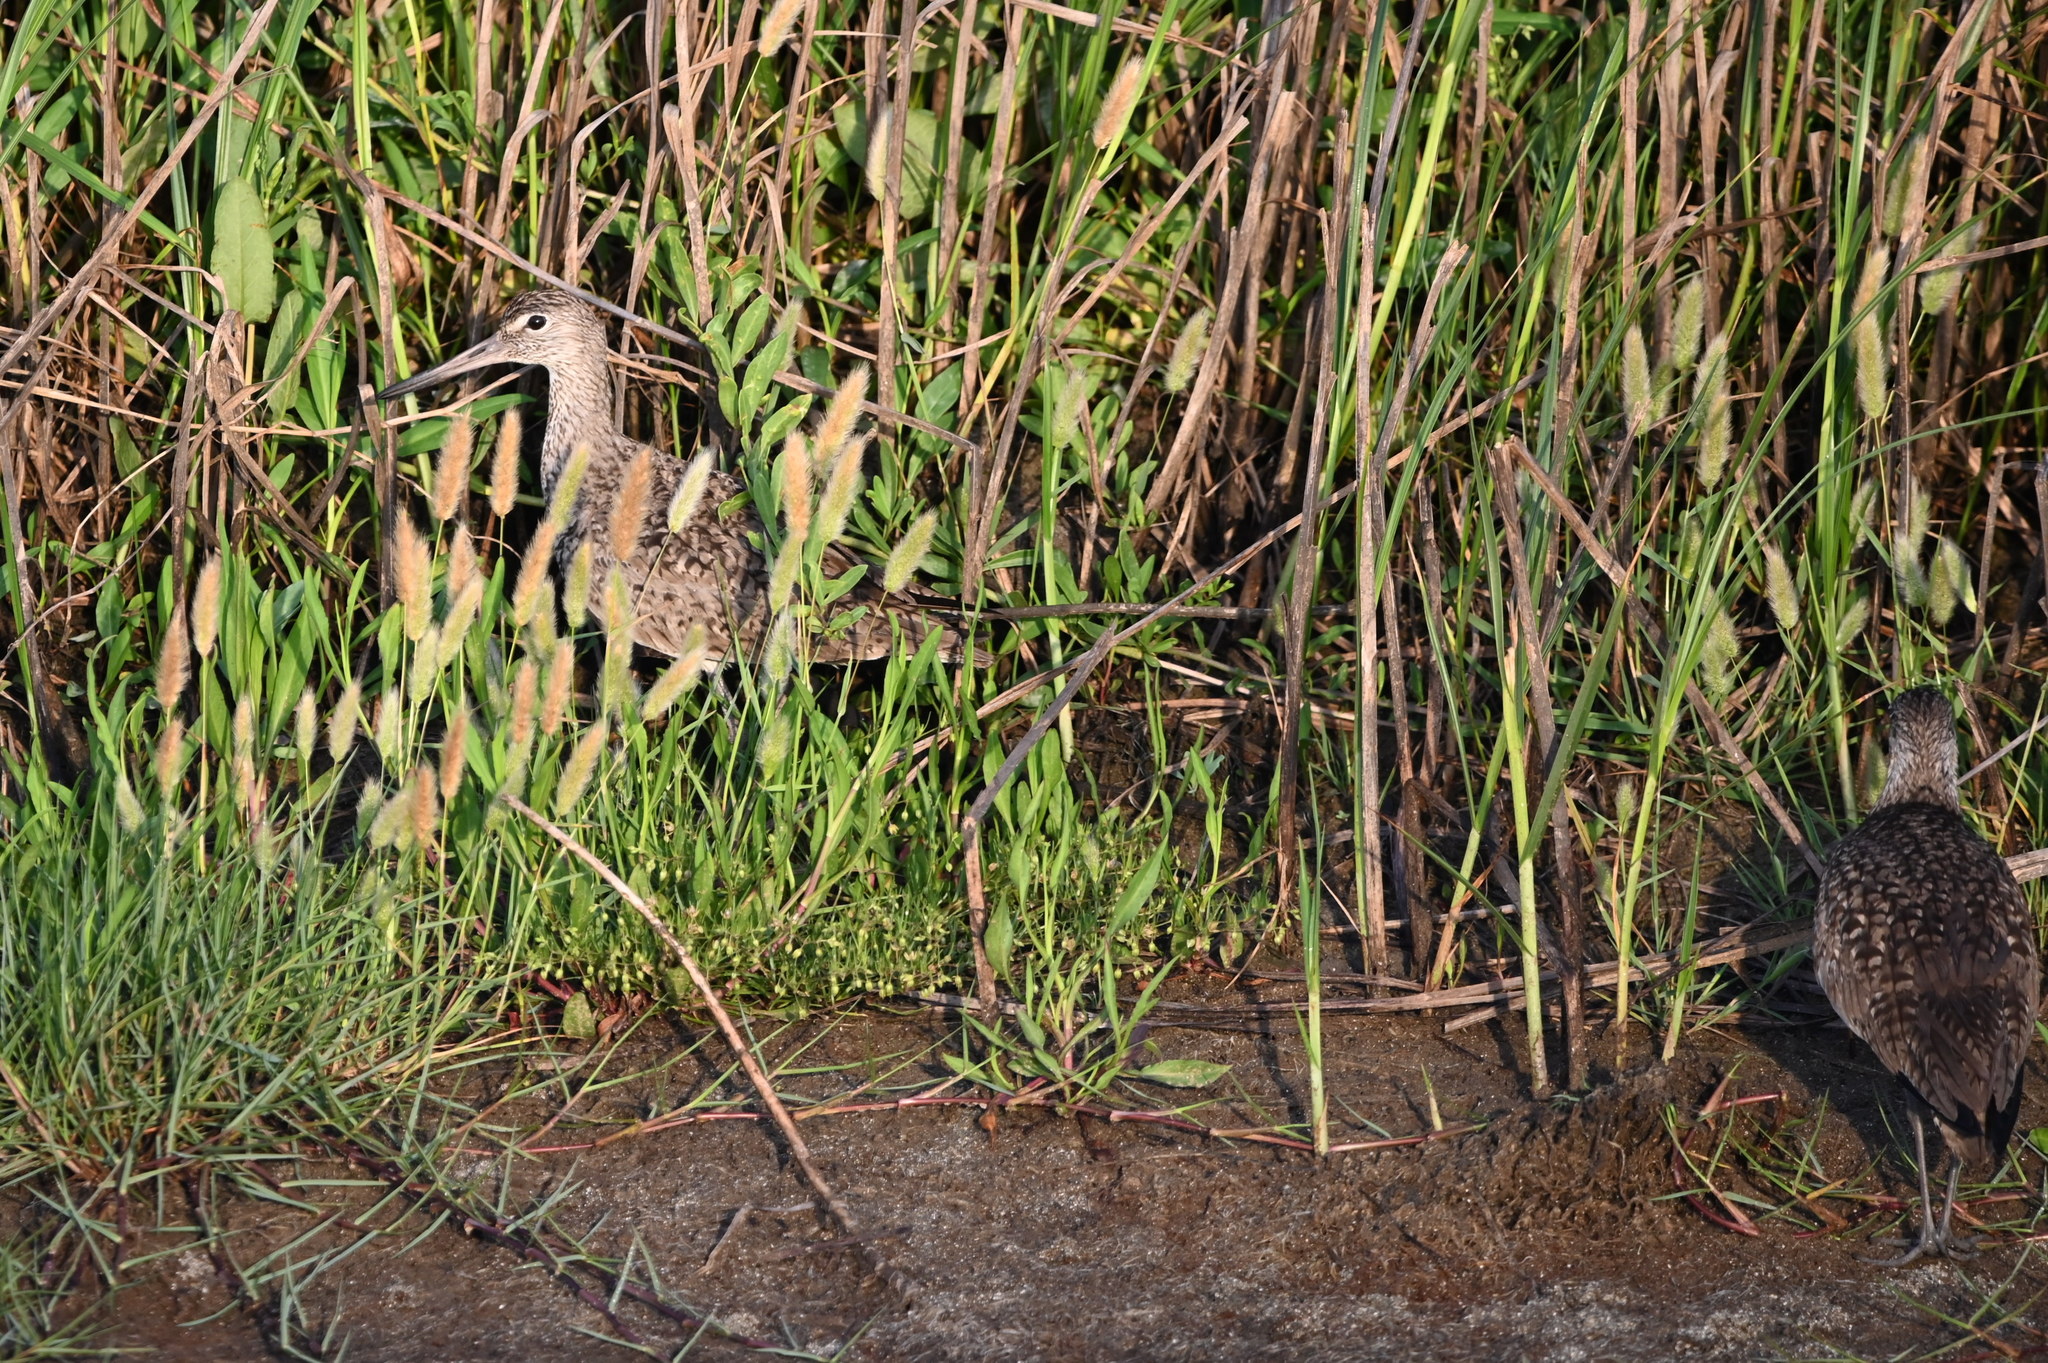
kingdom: Animalia
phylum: Chordata
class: Aves
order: Charadriiformes
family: Scolopacidae
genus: Tringa
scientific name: Tringa semipalmata
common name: Willet
